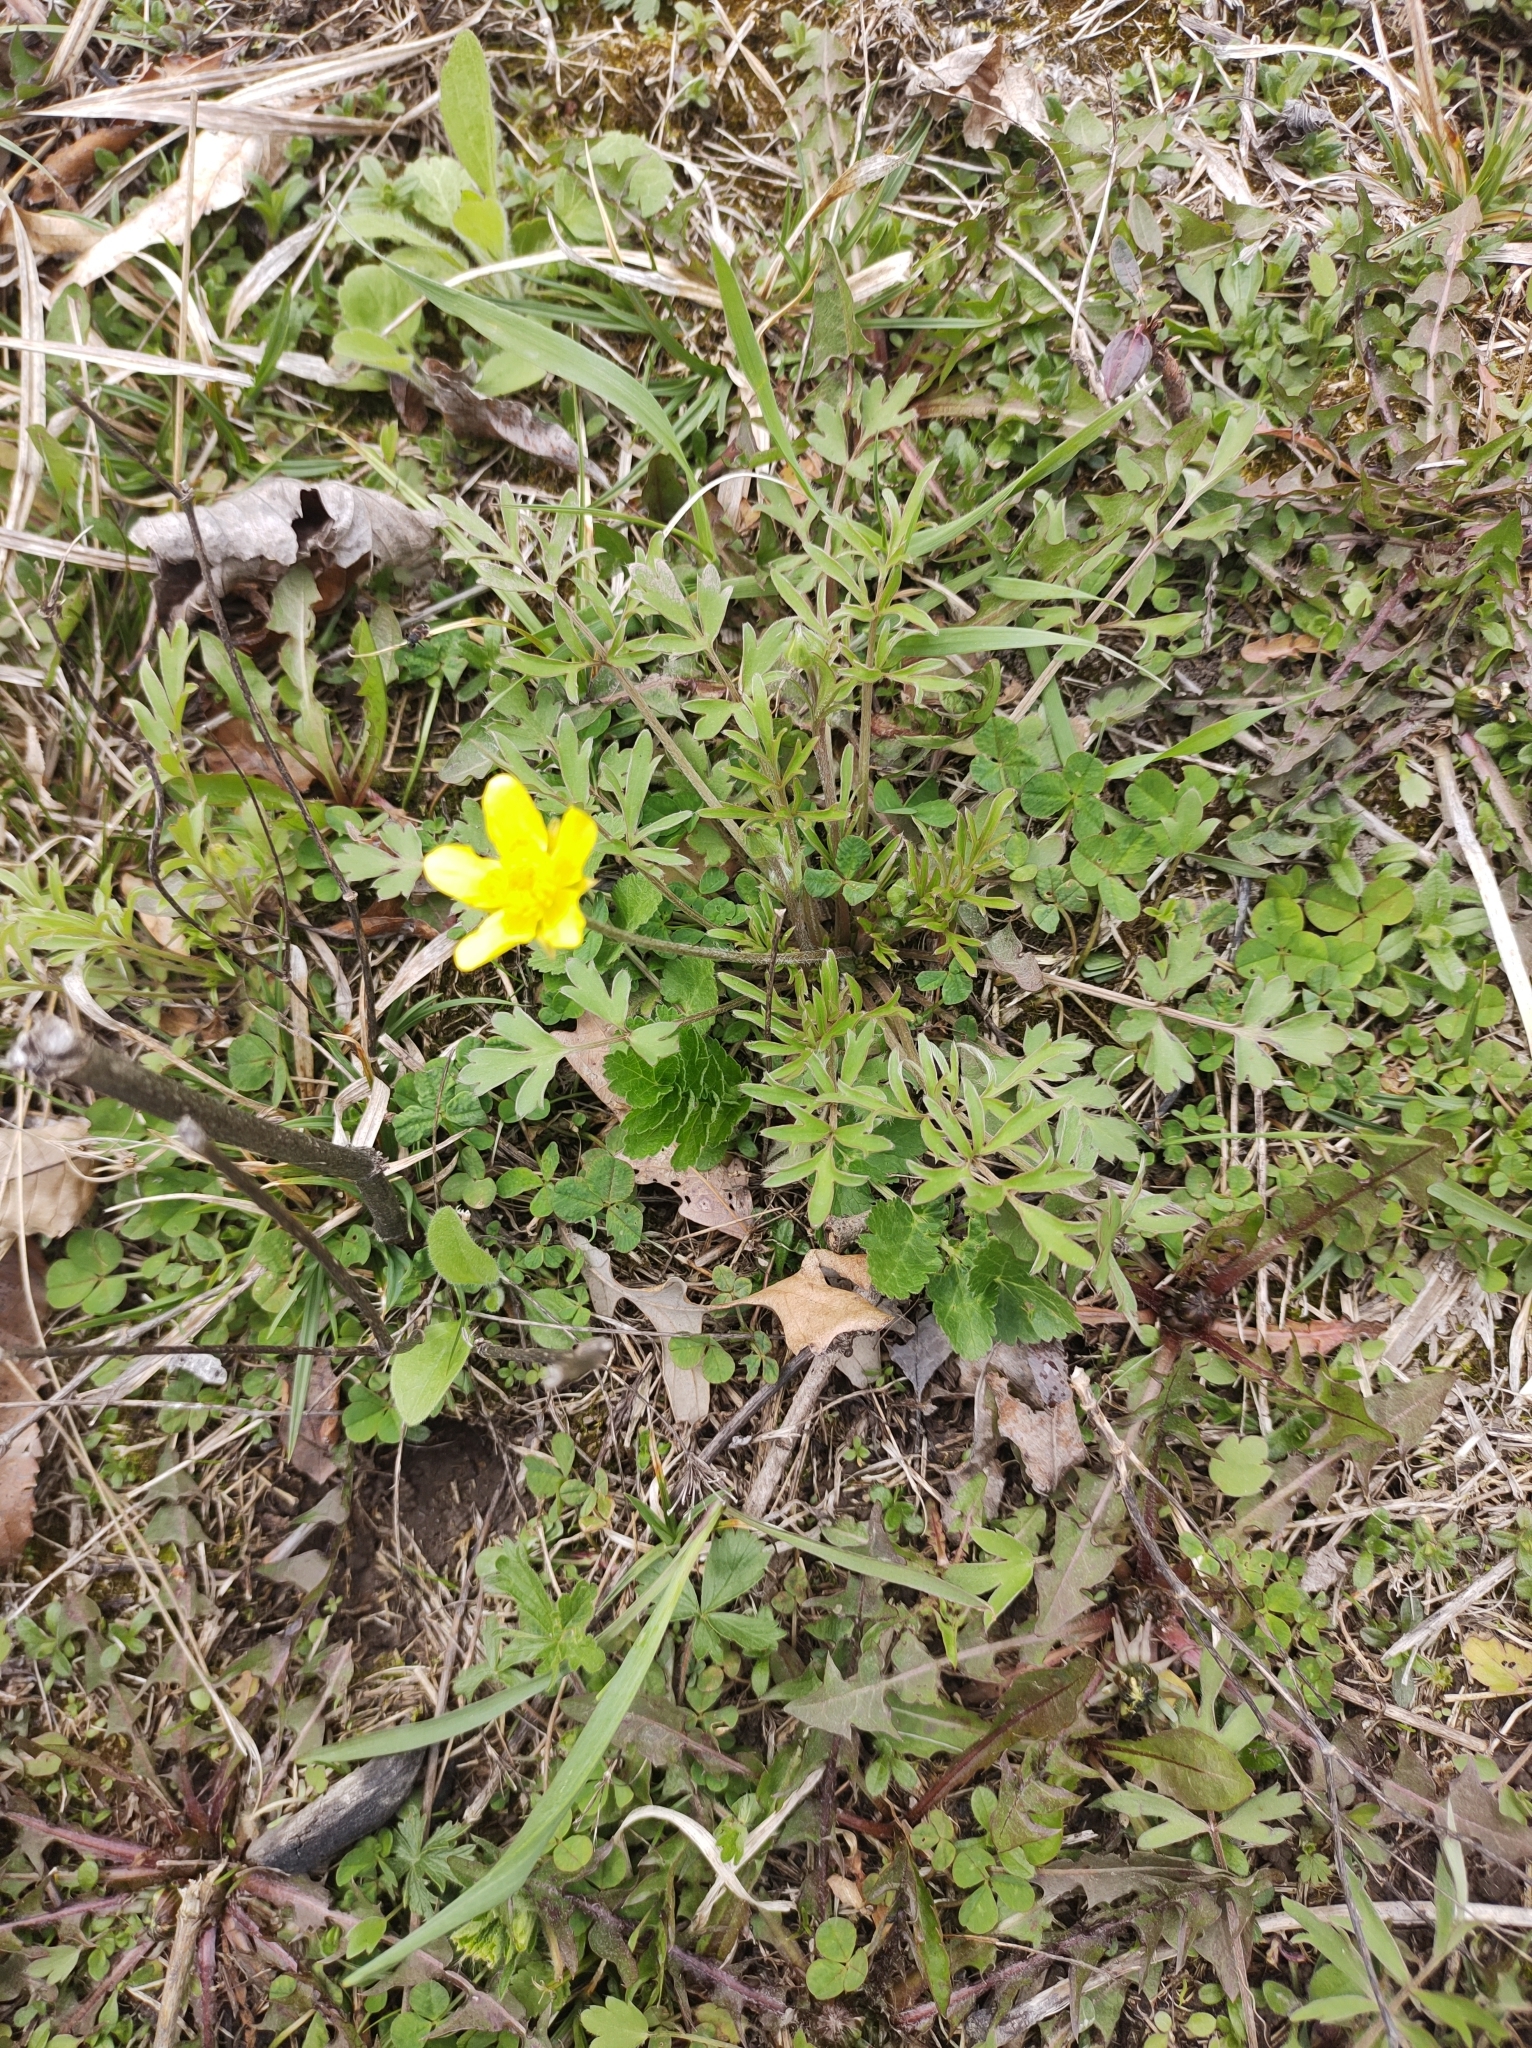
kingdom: Plantae
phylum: Tracheophyta
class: Magnoliopsida
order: Ranunculales
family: Ranunculaceae
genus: Ranunculus
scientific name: Ranunculus fascicularis
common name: Early buttercup
